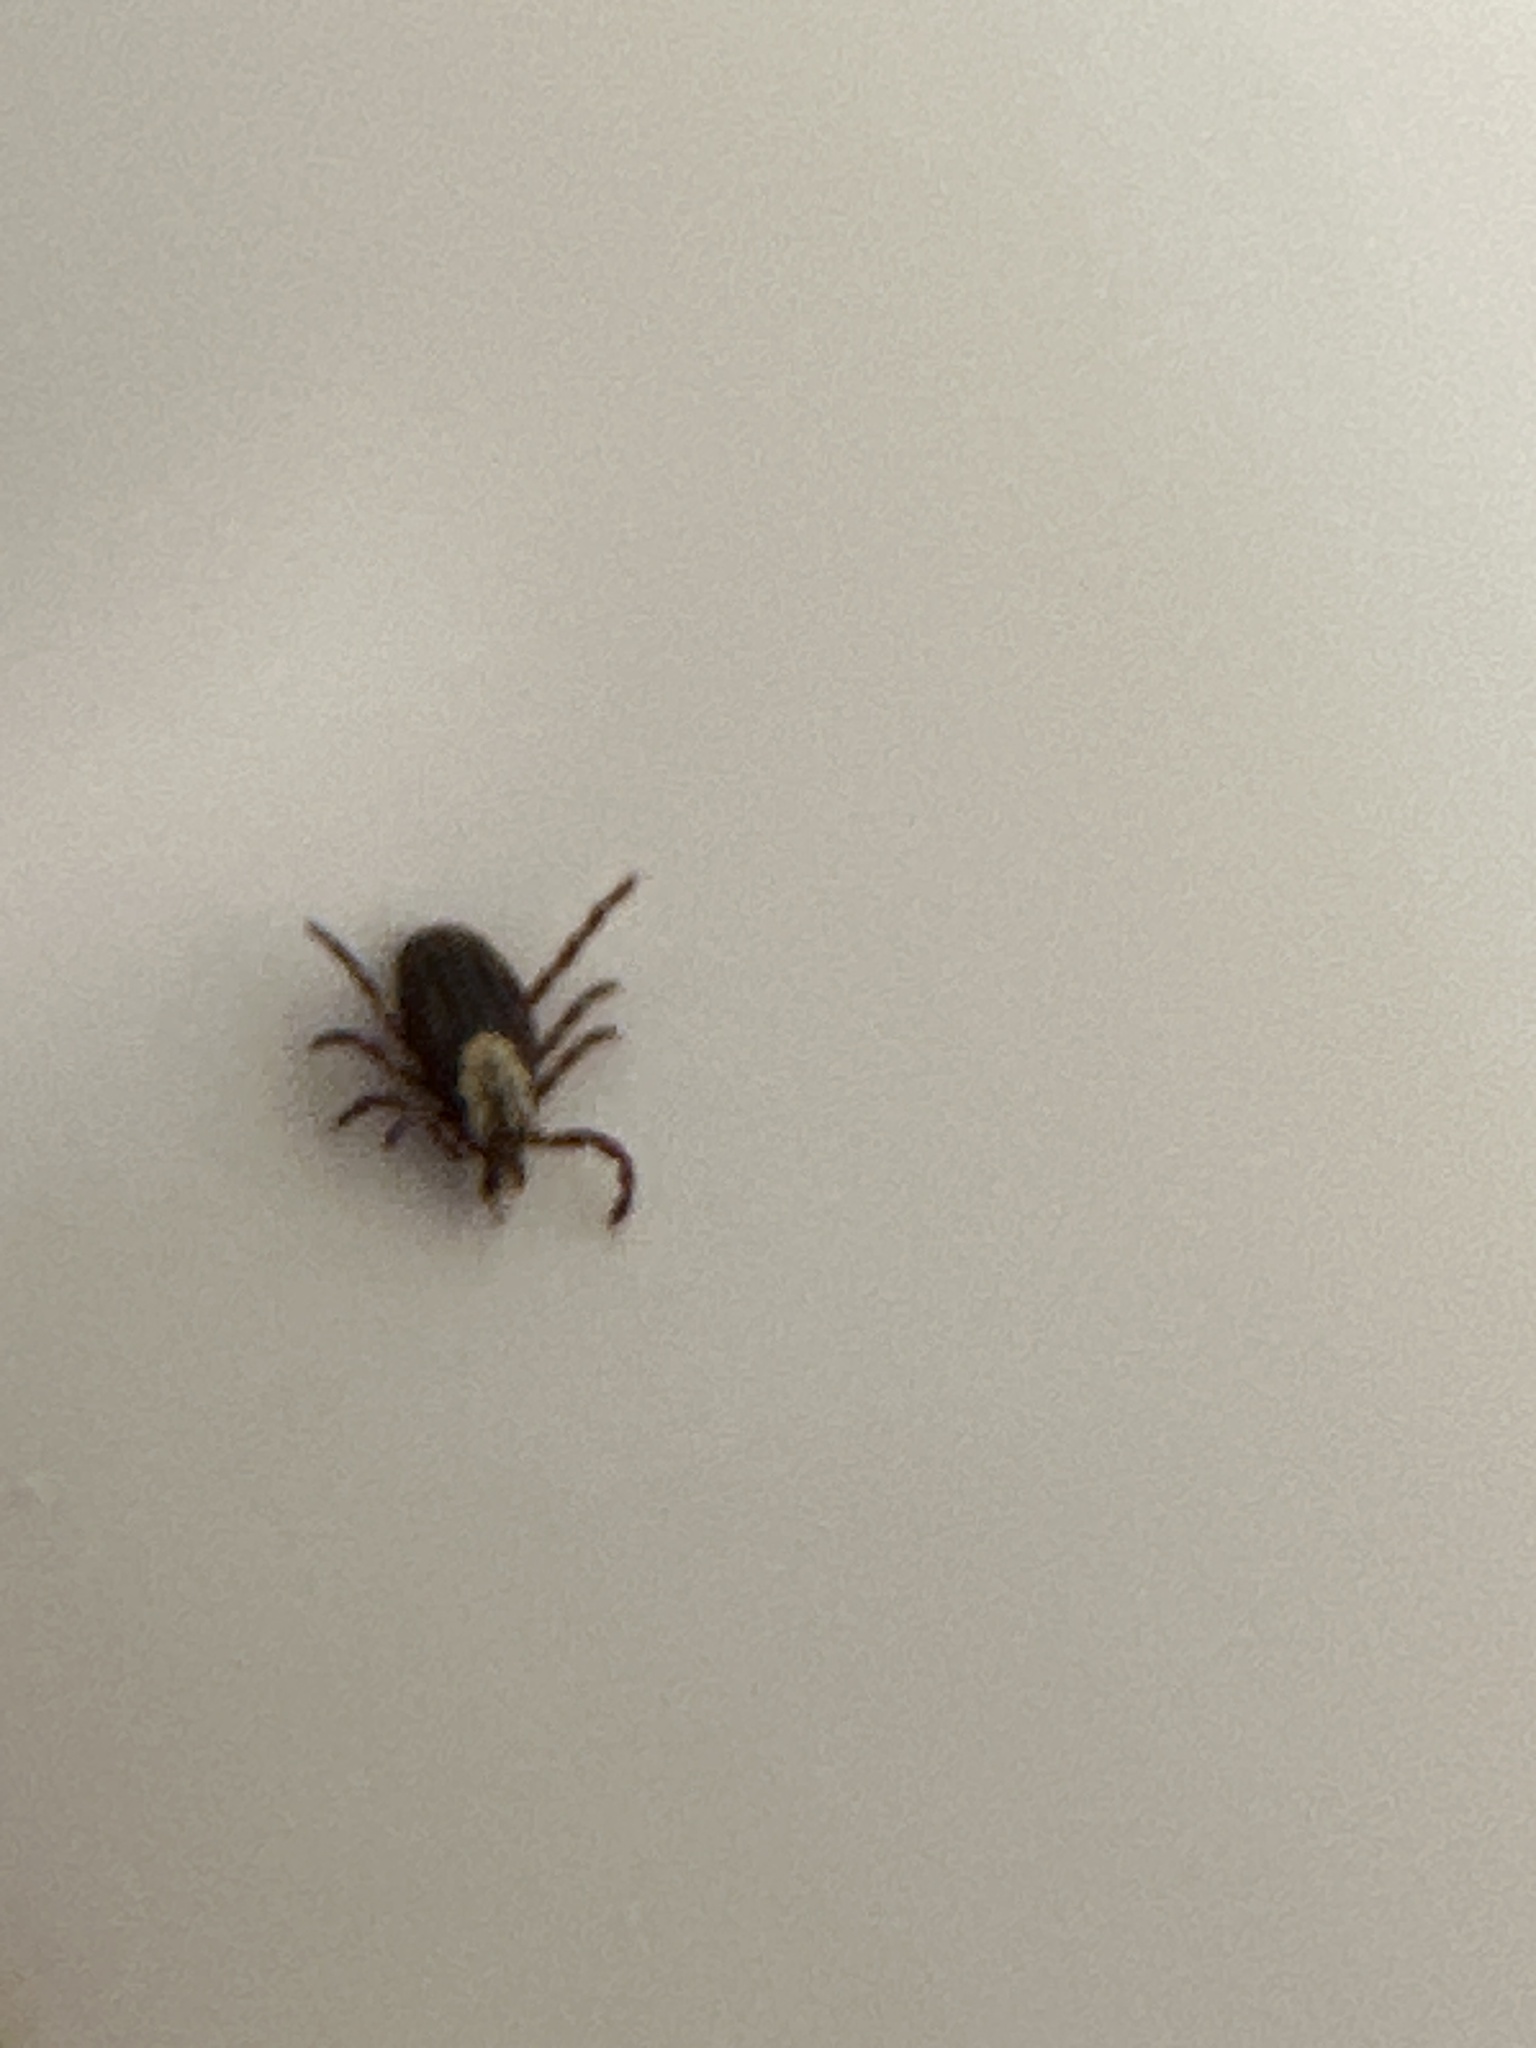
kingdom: Animalia
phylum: Arthropoda
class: Arachnida
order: Ixodida
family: Ixodidae
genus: Dermacentor
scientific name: Dermacentor variabilis
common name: American dog tick
